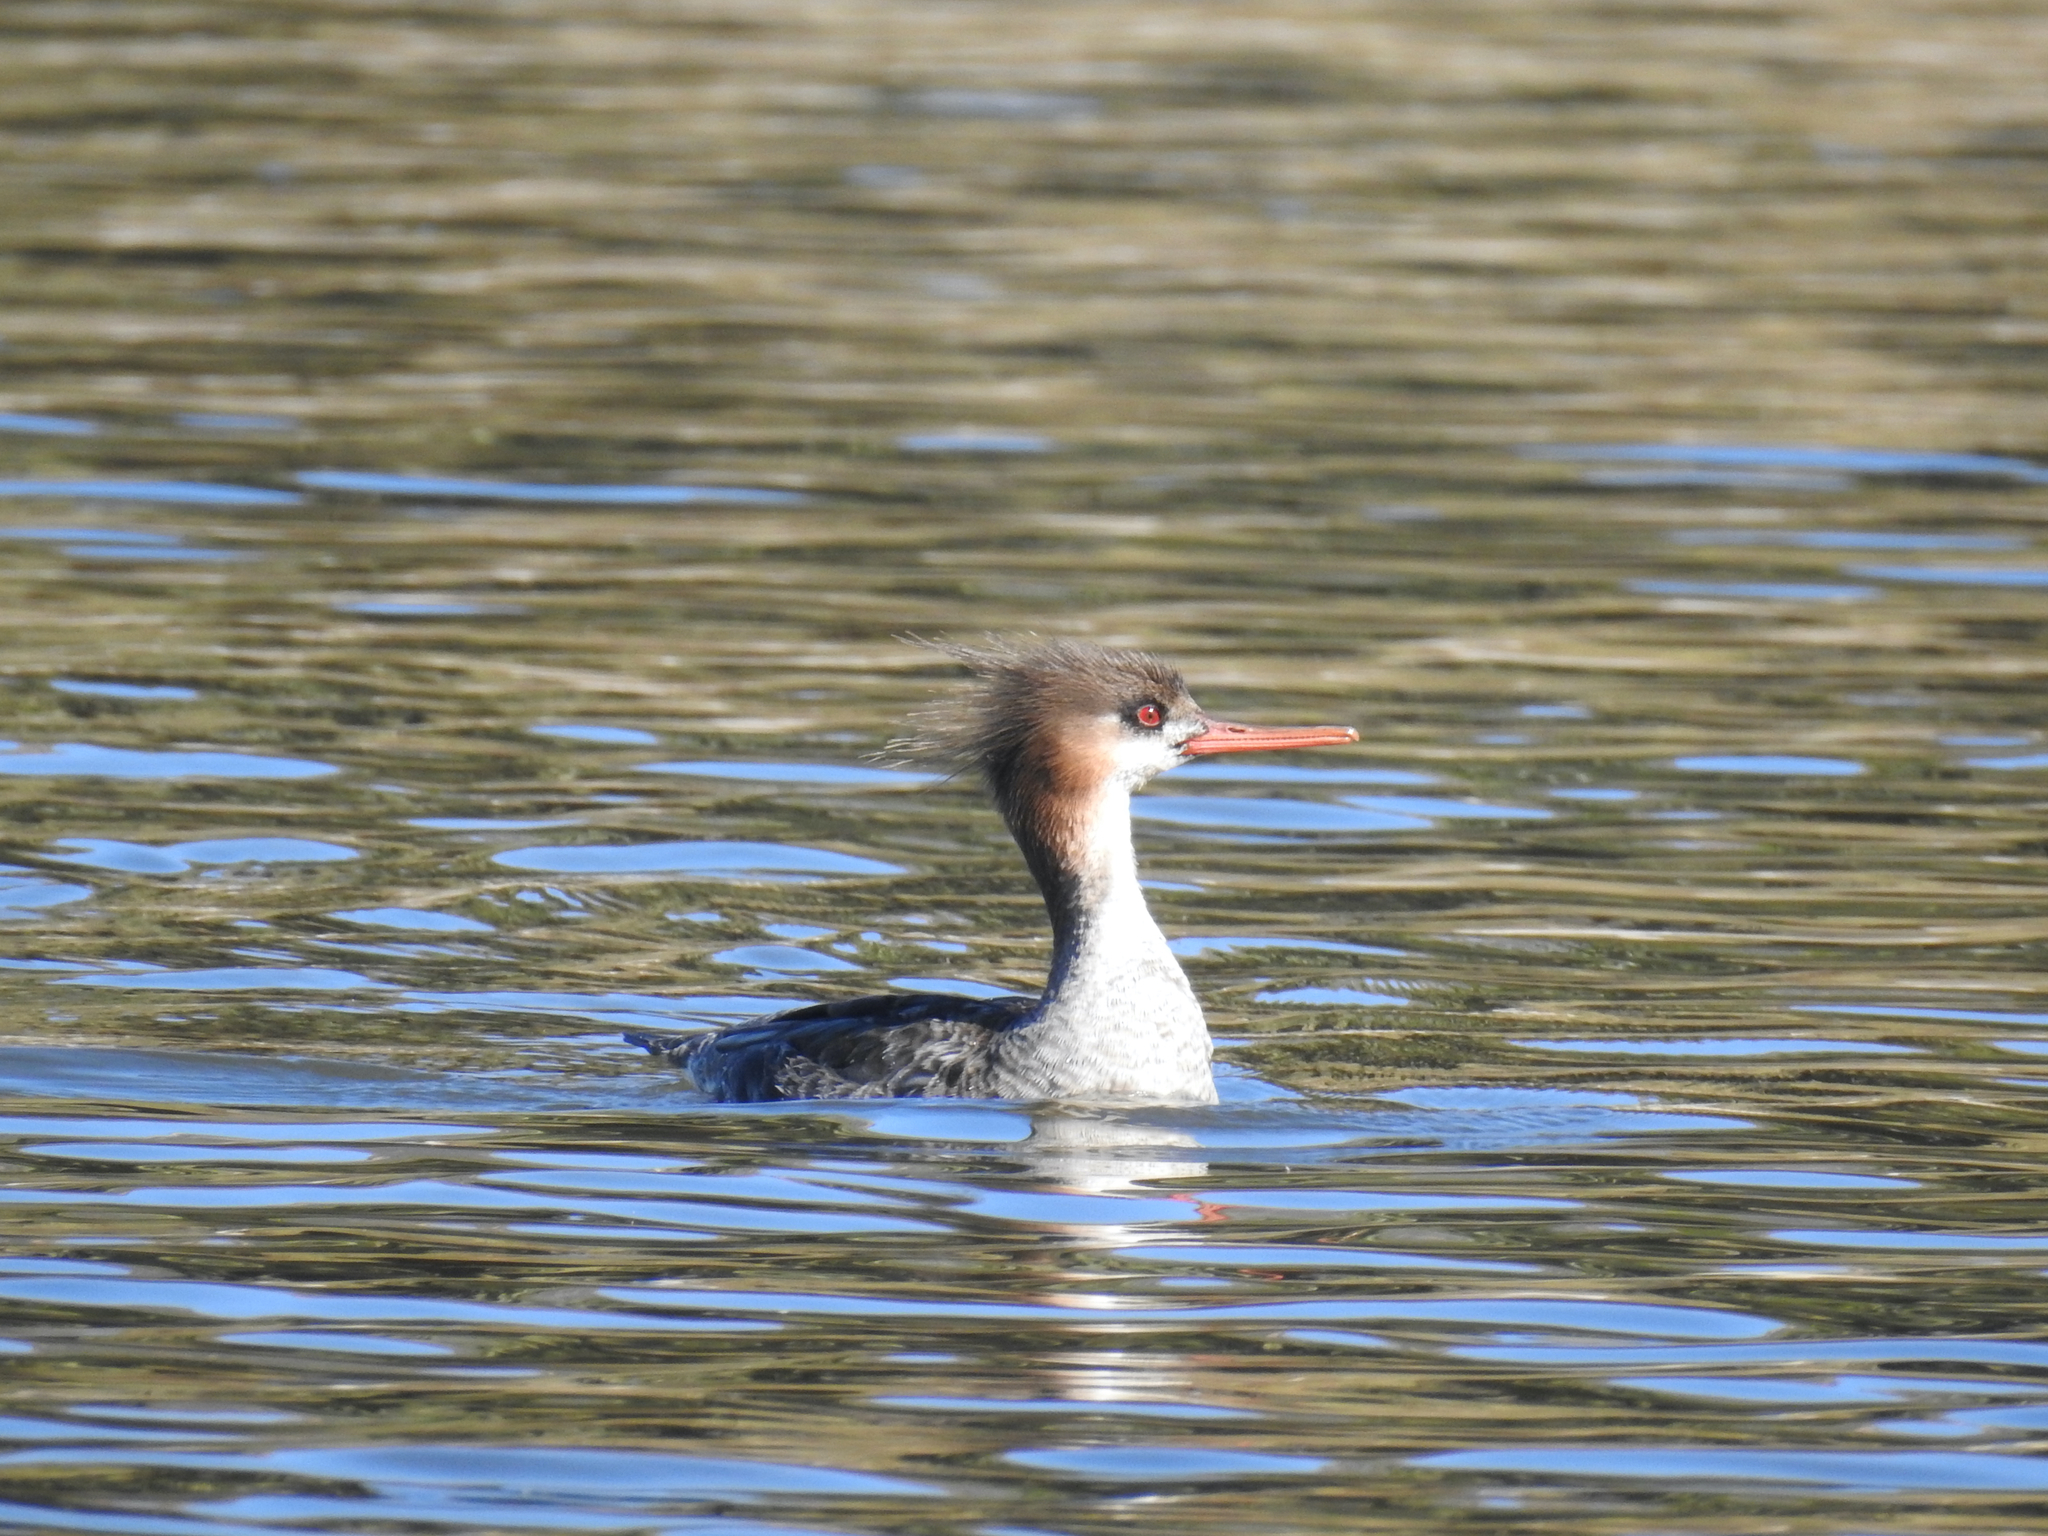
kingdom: Animalia
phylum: Chordata
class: Aves
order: Anseriformes
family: Anatidae
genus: Mergus
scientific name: Mergus serrator
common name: Red-breasted merganser
